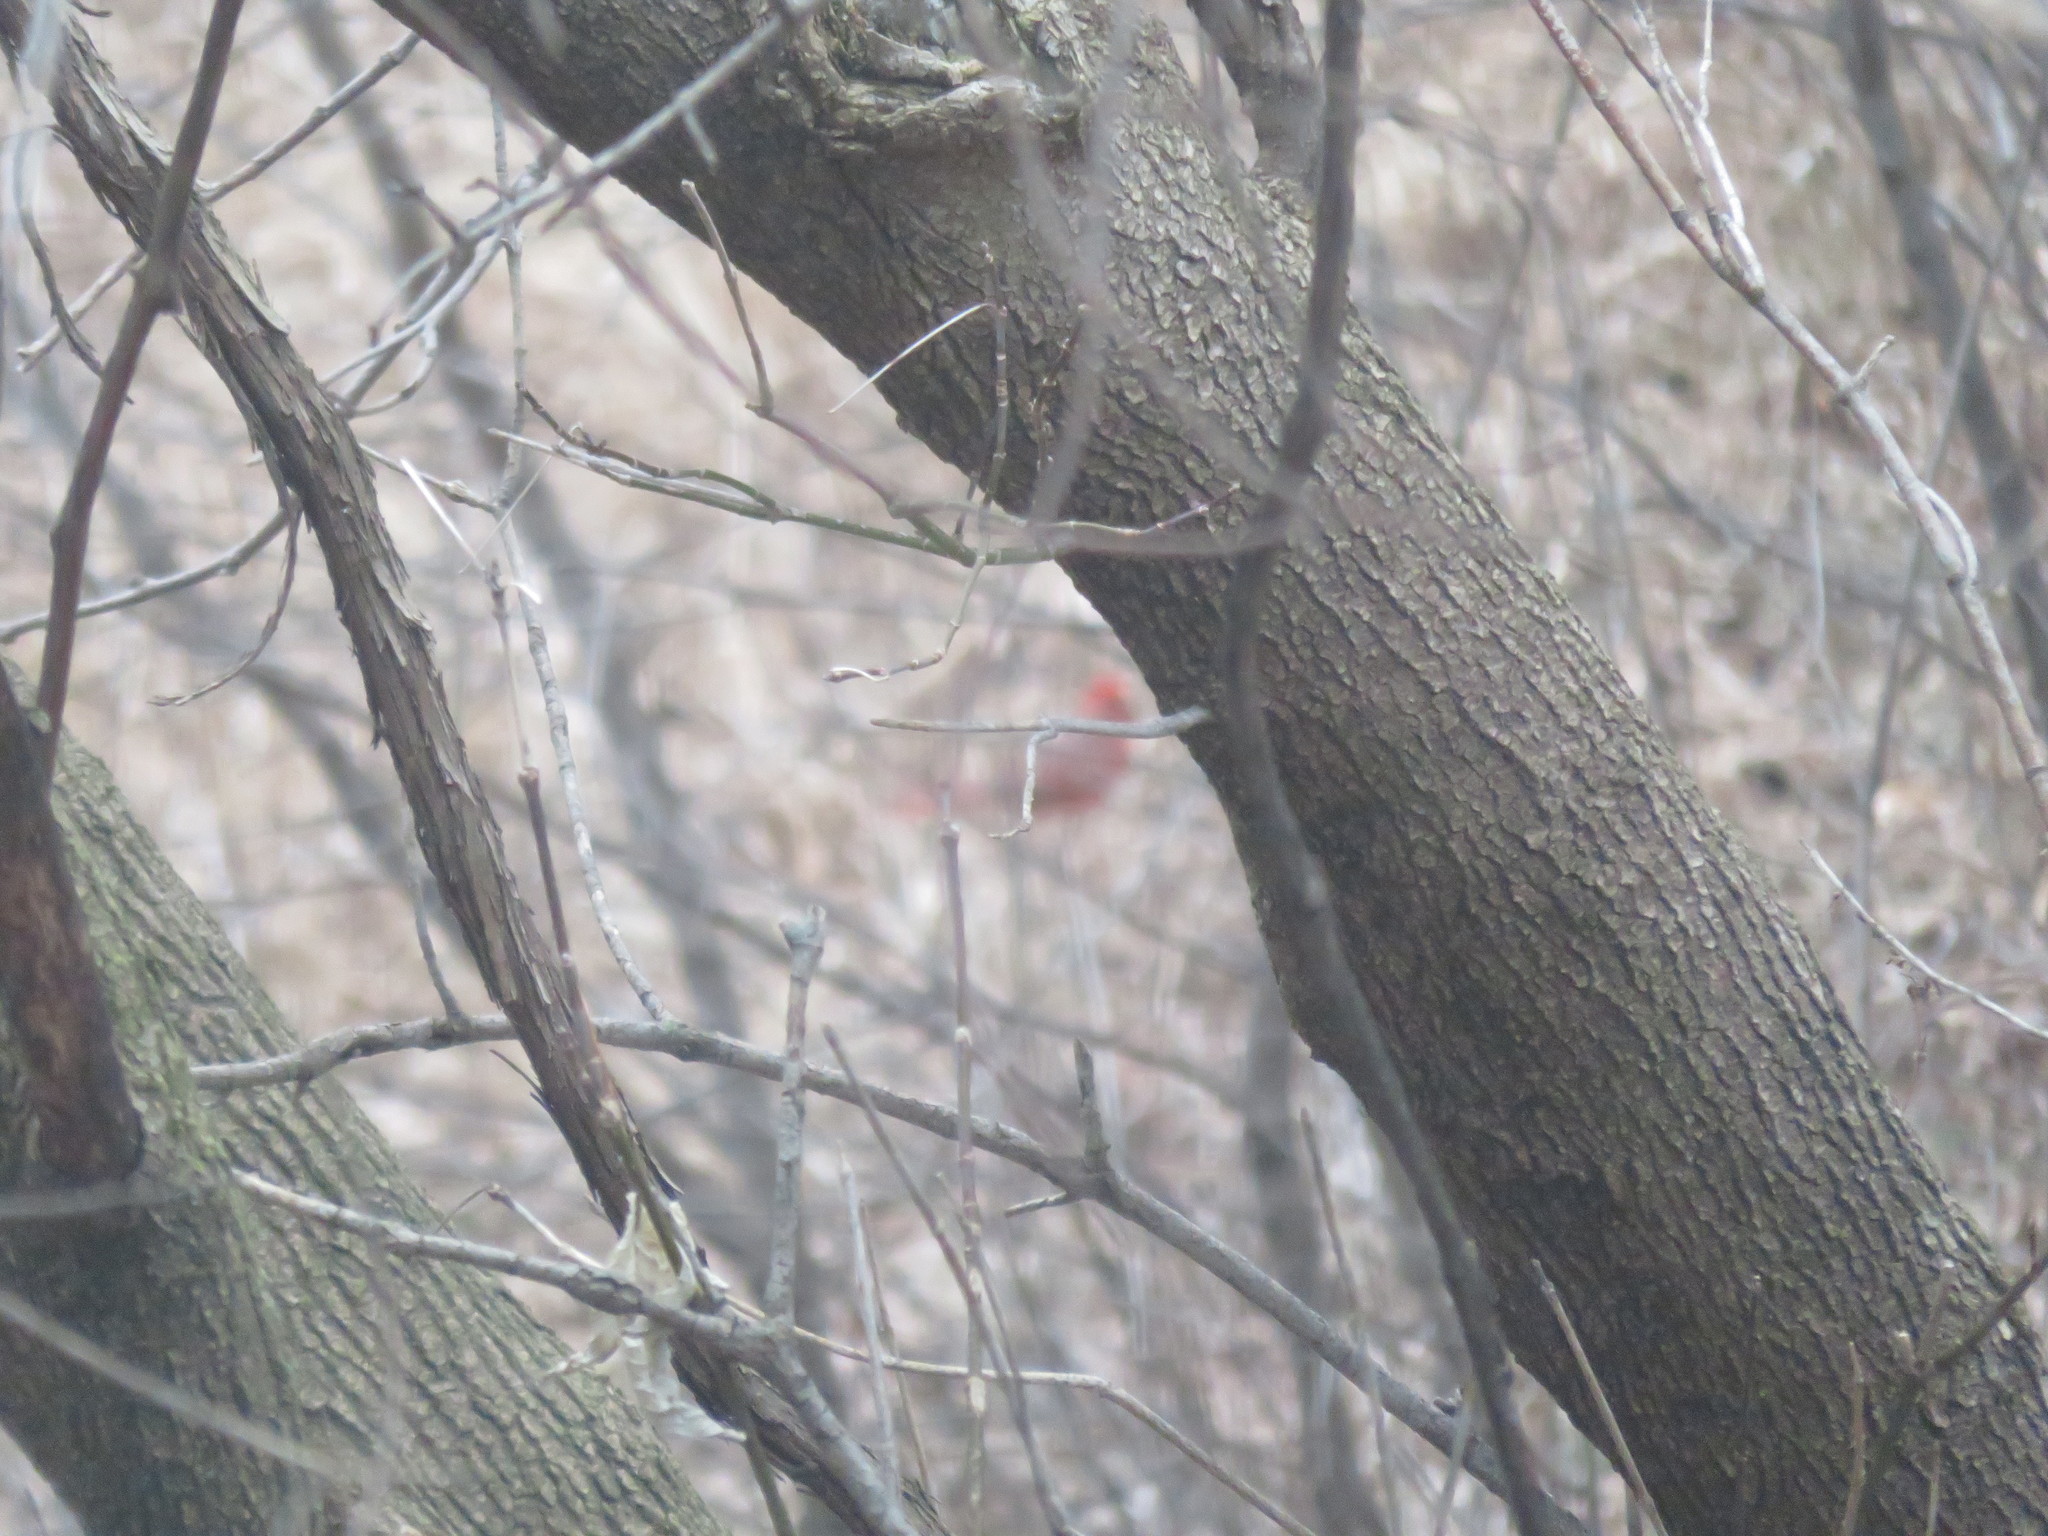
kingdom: Animalia
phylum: Chordata
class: Aves
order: Passeriformes
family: Cardinalidae
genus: Cardinalis
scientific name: Cardinalis cardinalis
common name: Northern cardinal
